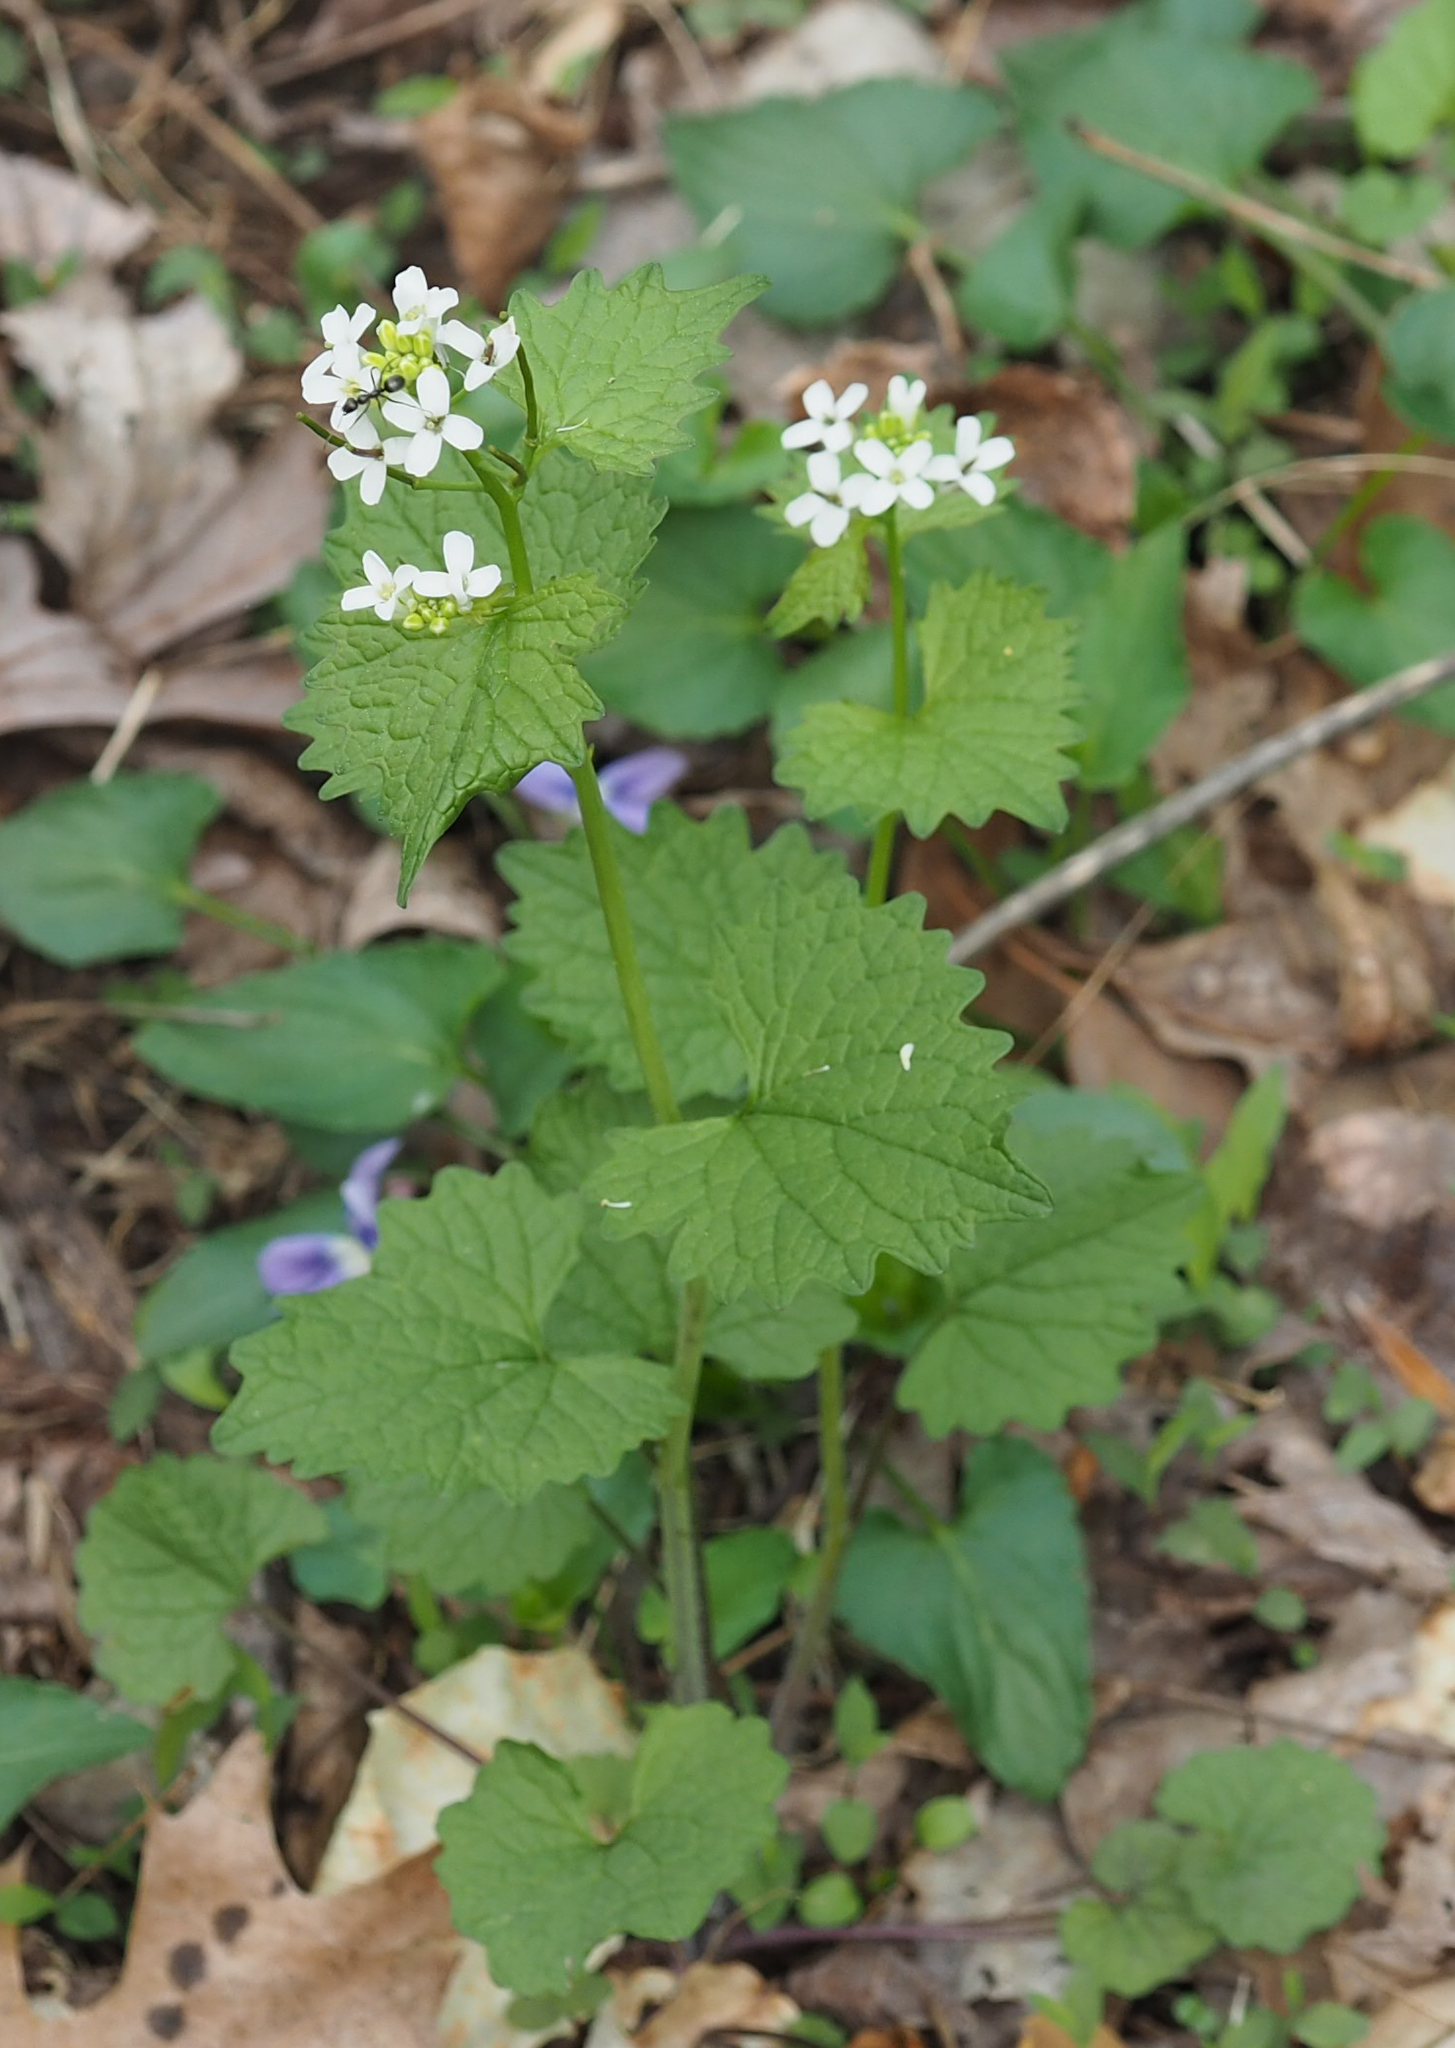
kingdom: Plantae
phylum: Tracheophyta
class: Magnoliopsida
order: Brassicales
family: Brassicaceae
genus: Alliaria
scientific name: Alliaria petiolata
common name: Garlic mustard
